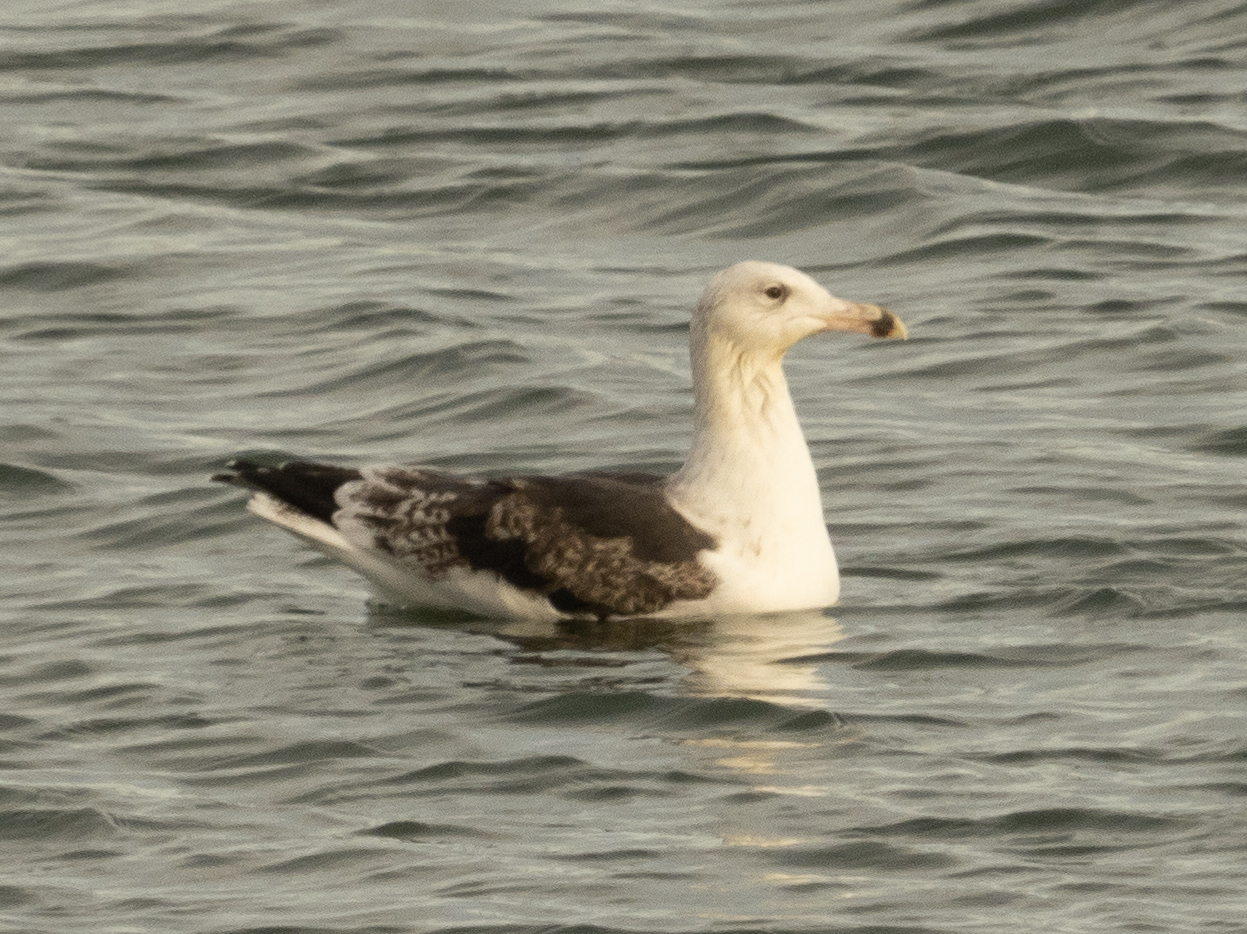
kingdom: Animalia
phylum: Chordata
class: Aves
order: Charadriiformes
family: Laridae
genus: Larus
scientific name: Larus marinus
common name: Great black-backed gull
